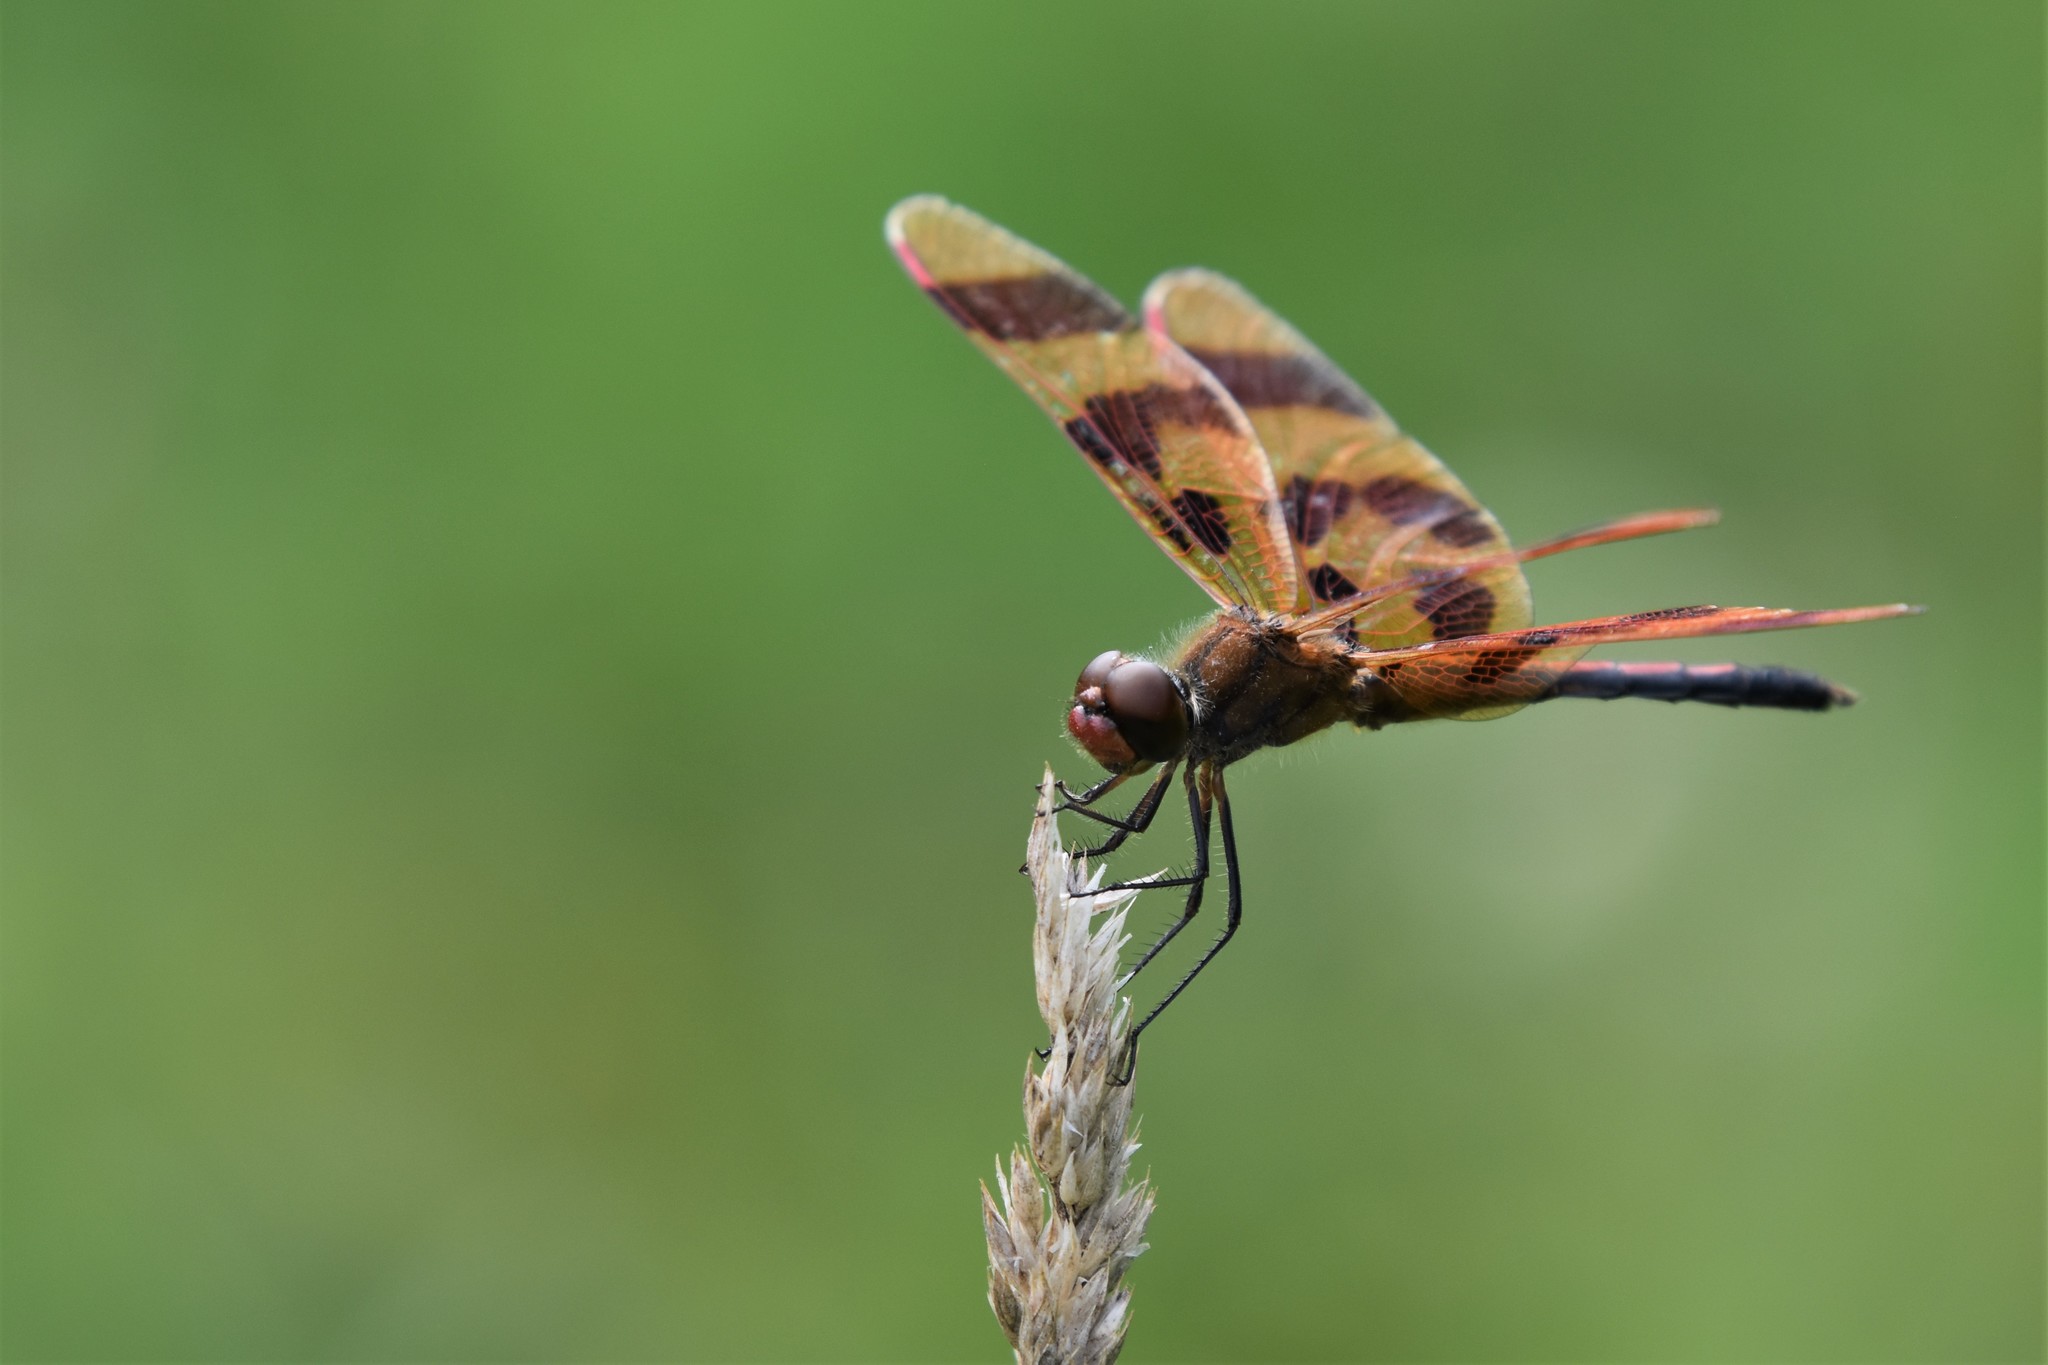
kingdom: Animalia
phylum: Arthropoda
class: Insecta
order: Odonata
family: Libellulidae
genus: Celithemis
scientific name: Celithemis eponina
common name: Halloween pennant
